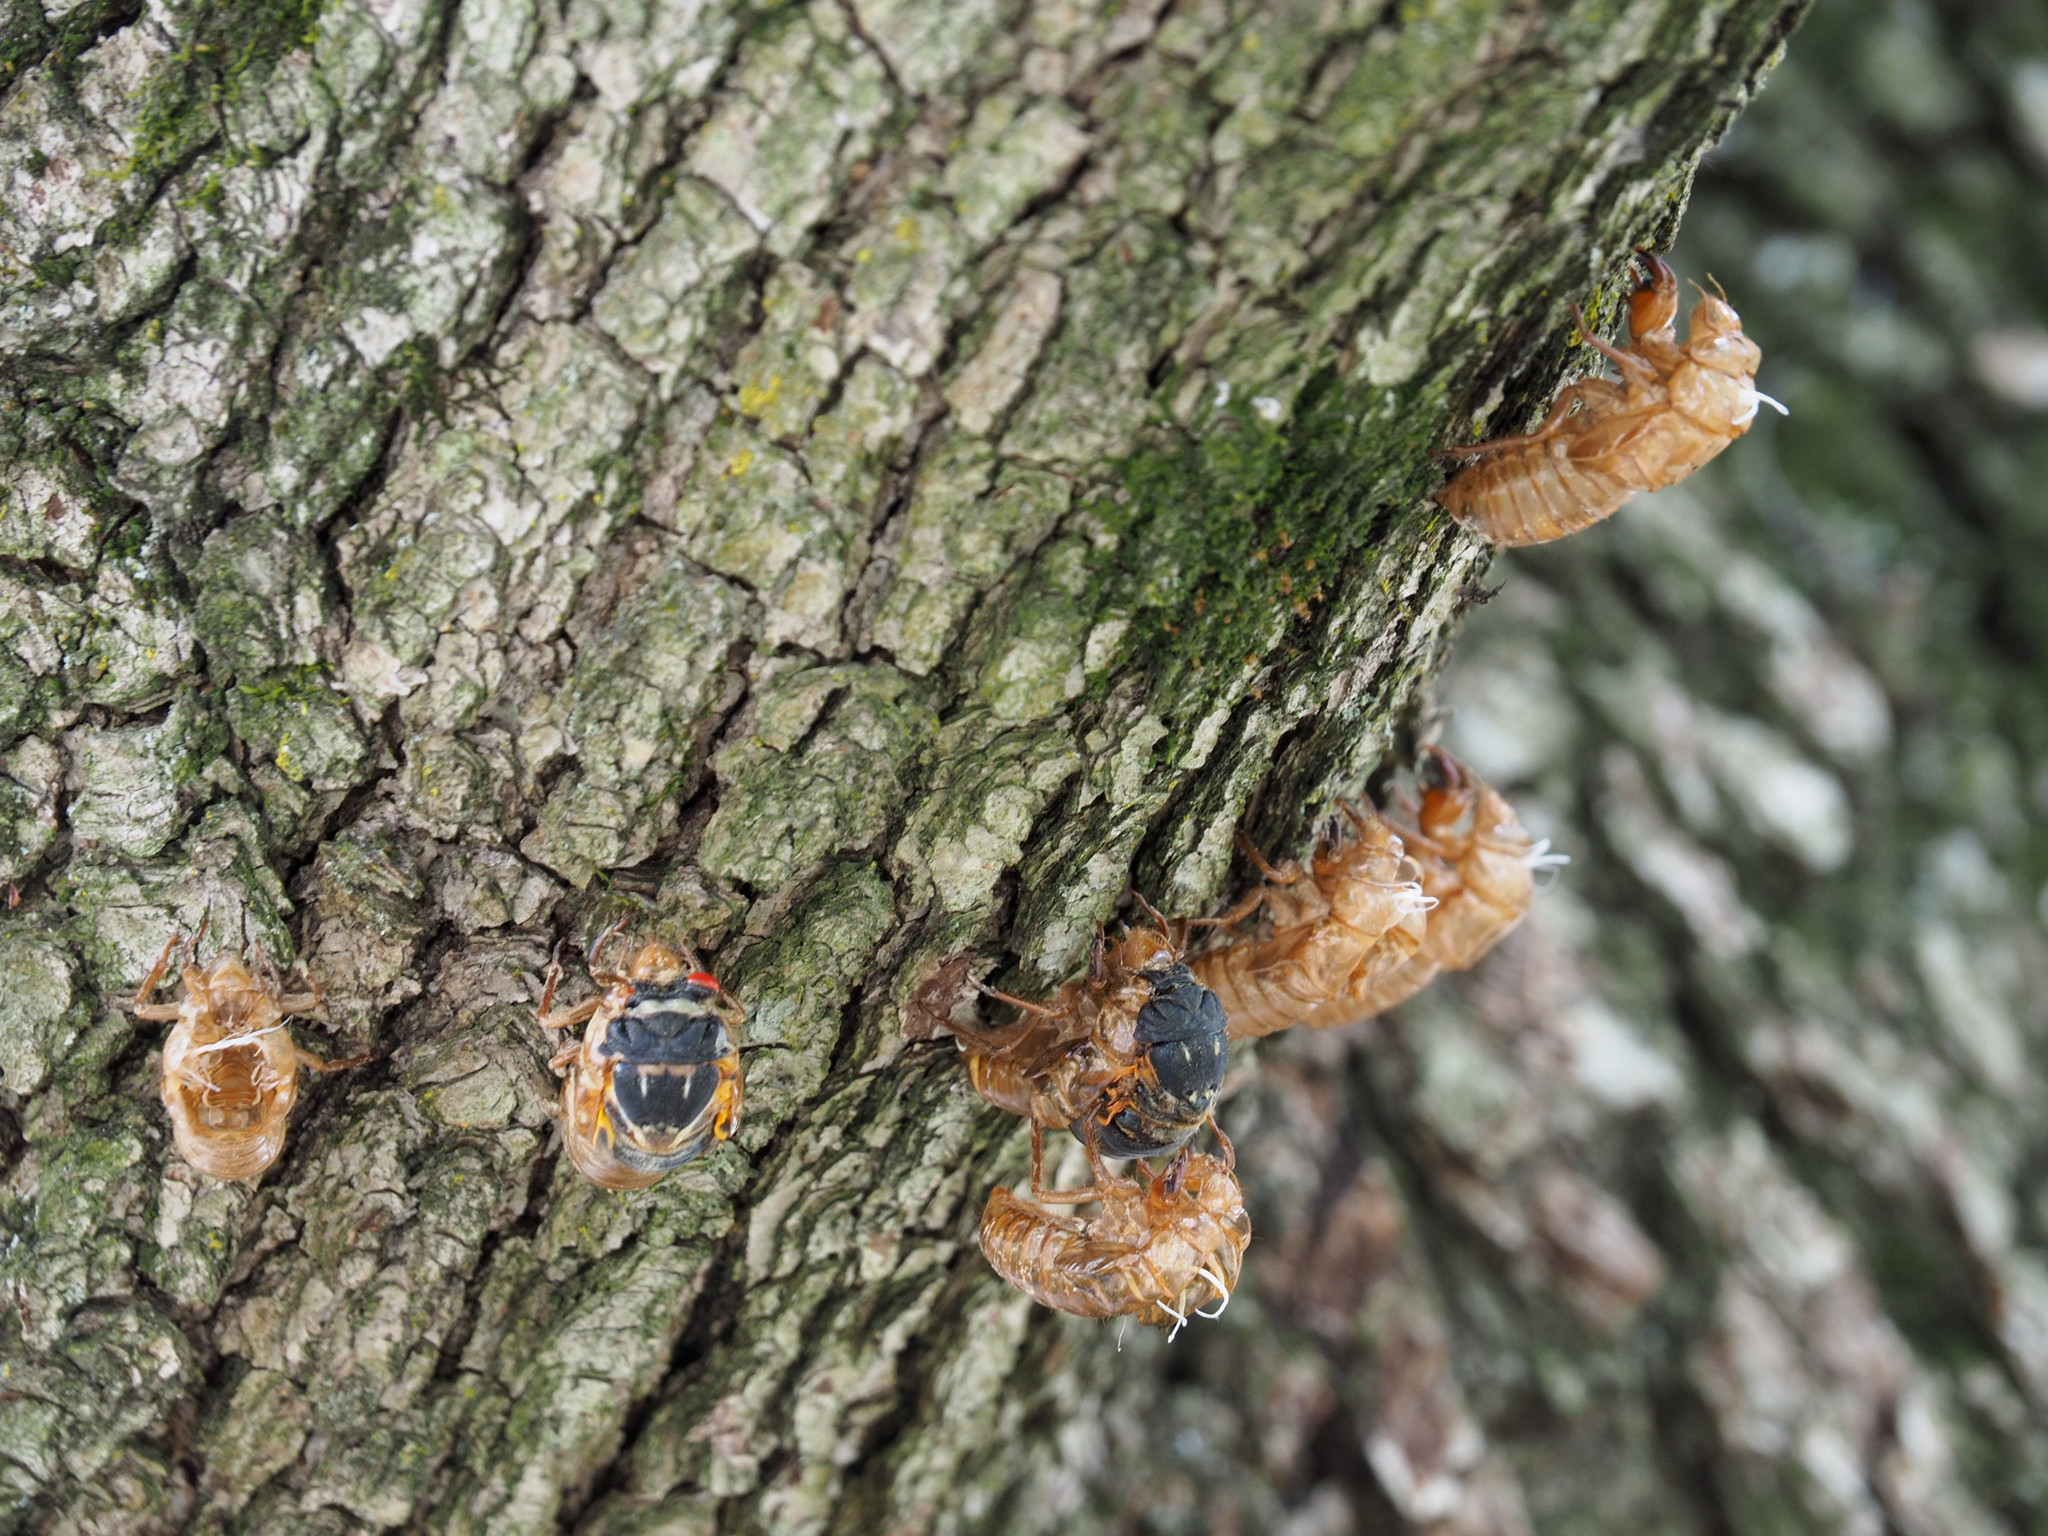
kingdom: Animalia
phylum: Arthropoda
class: Insecta
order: Hemiptera
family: Cicadidae
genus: Magicicada
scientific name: Magicicada
